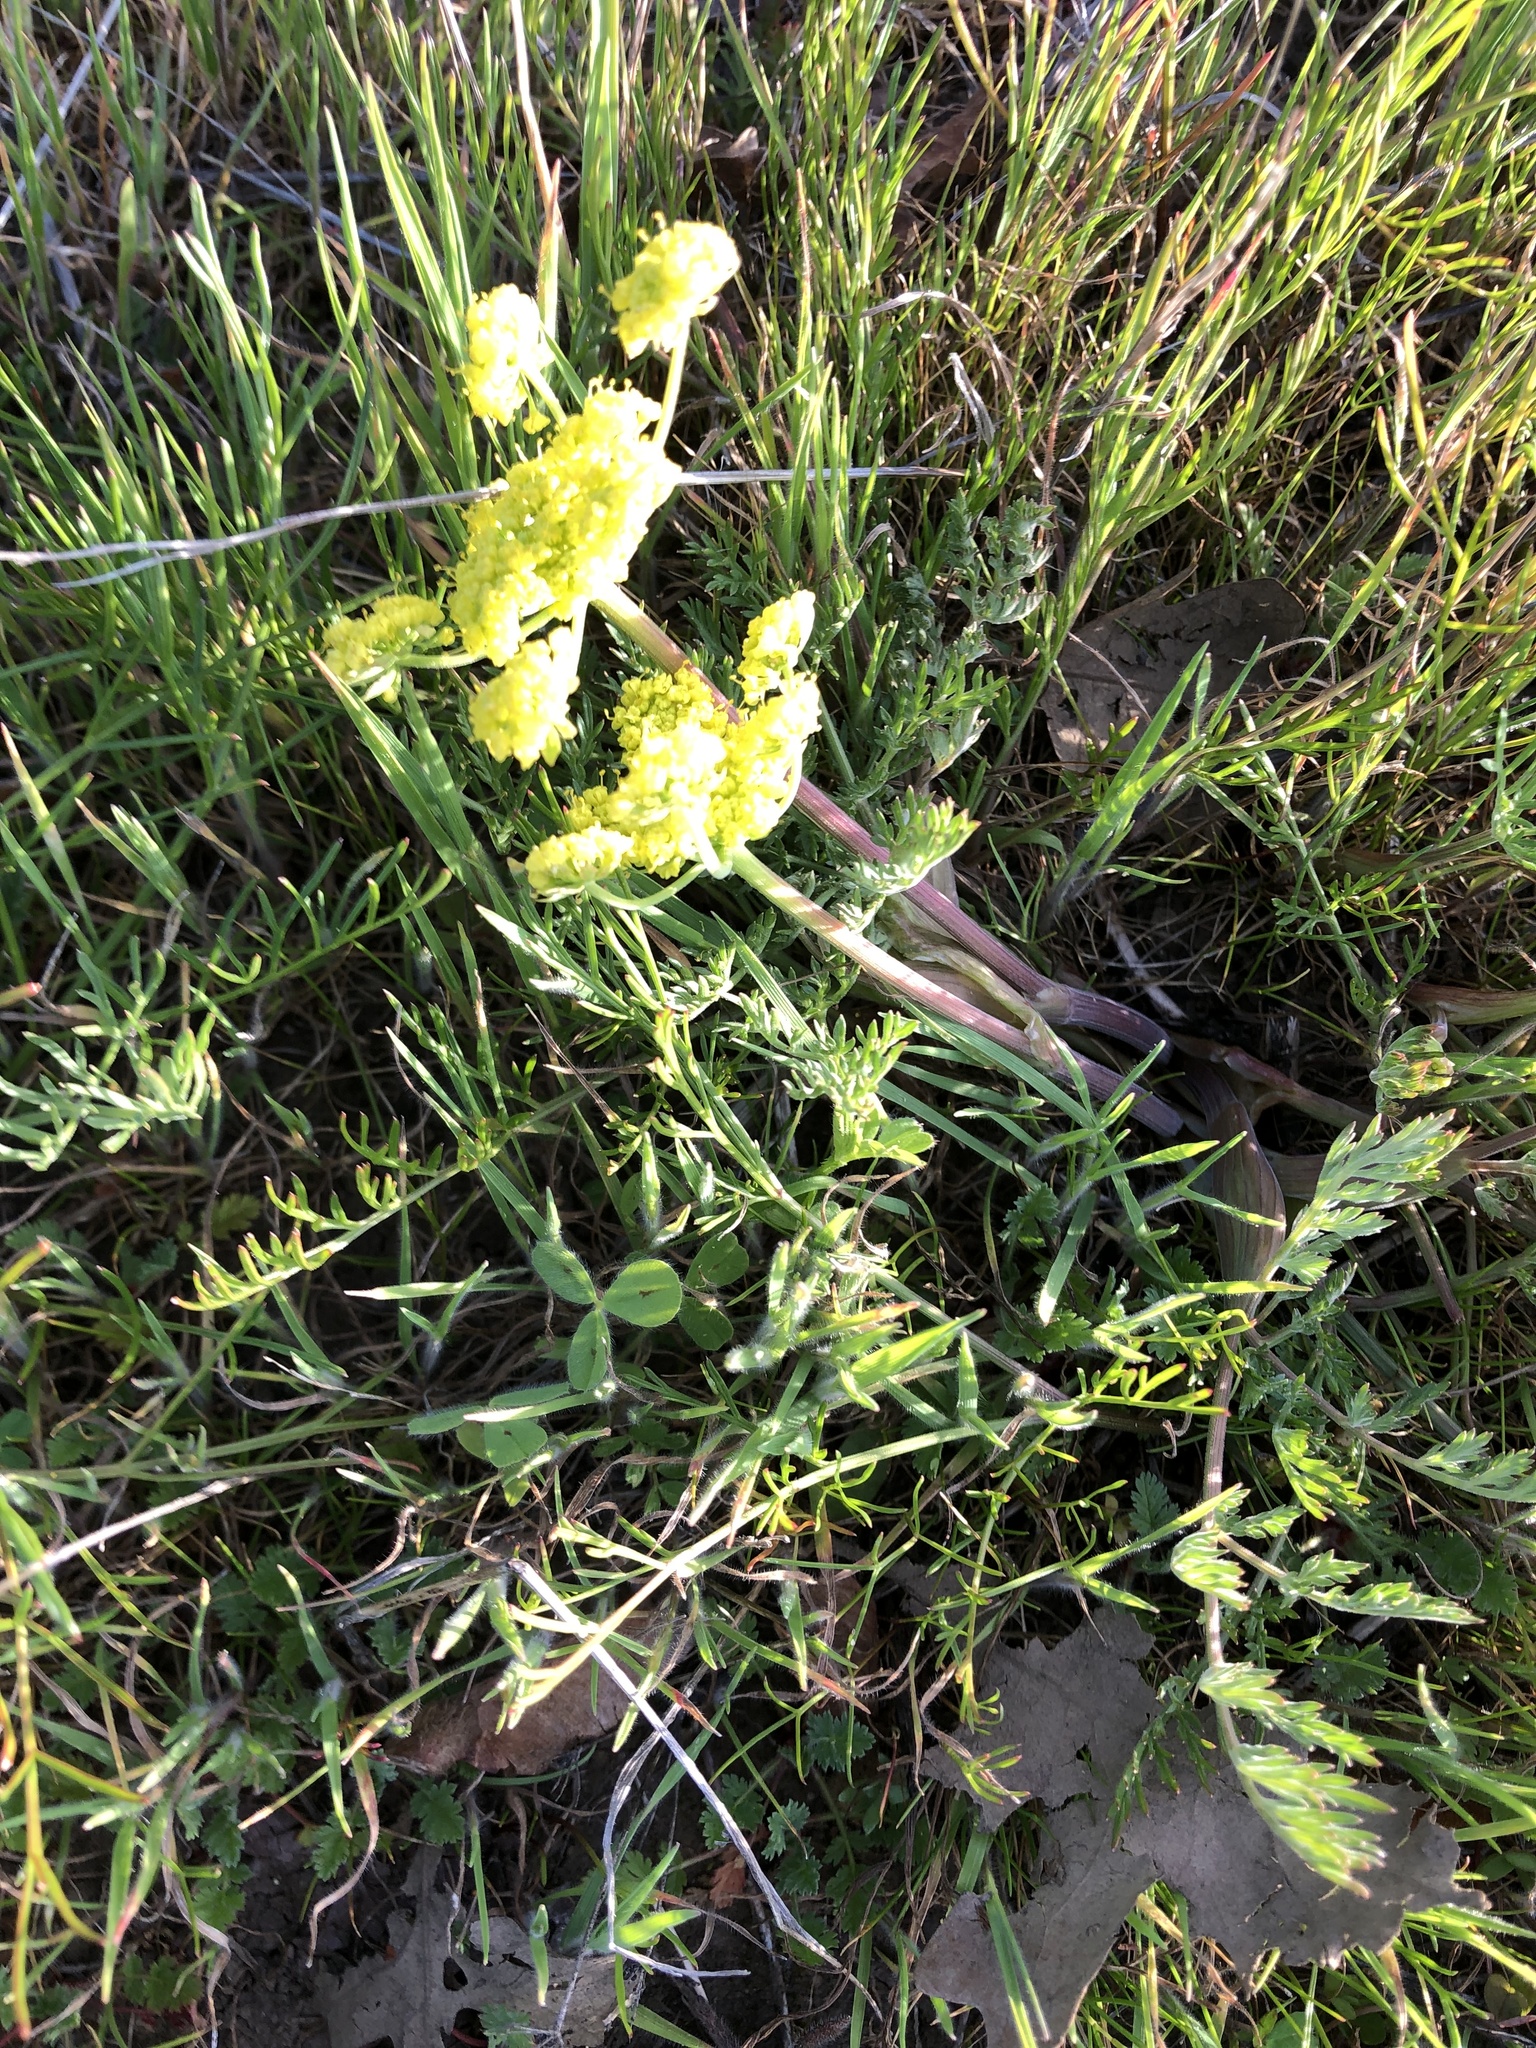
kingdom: Plantae
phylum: Tracheophyta
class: Magnoliopsida
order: Apiales
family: Apiaceae
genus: Lomatium
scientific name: Lomatium utriculatum
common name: Fine-leaf desert-parsley
